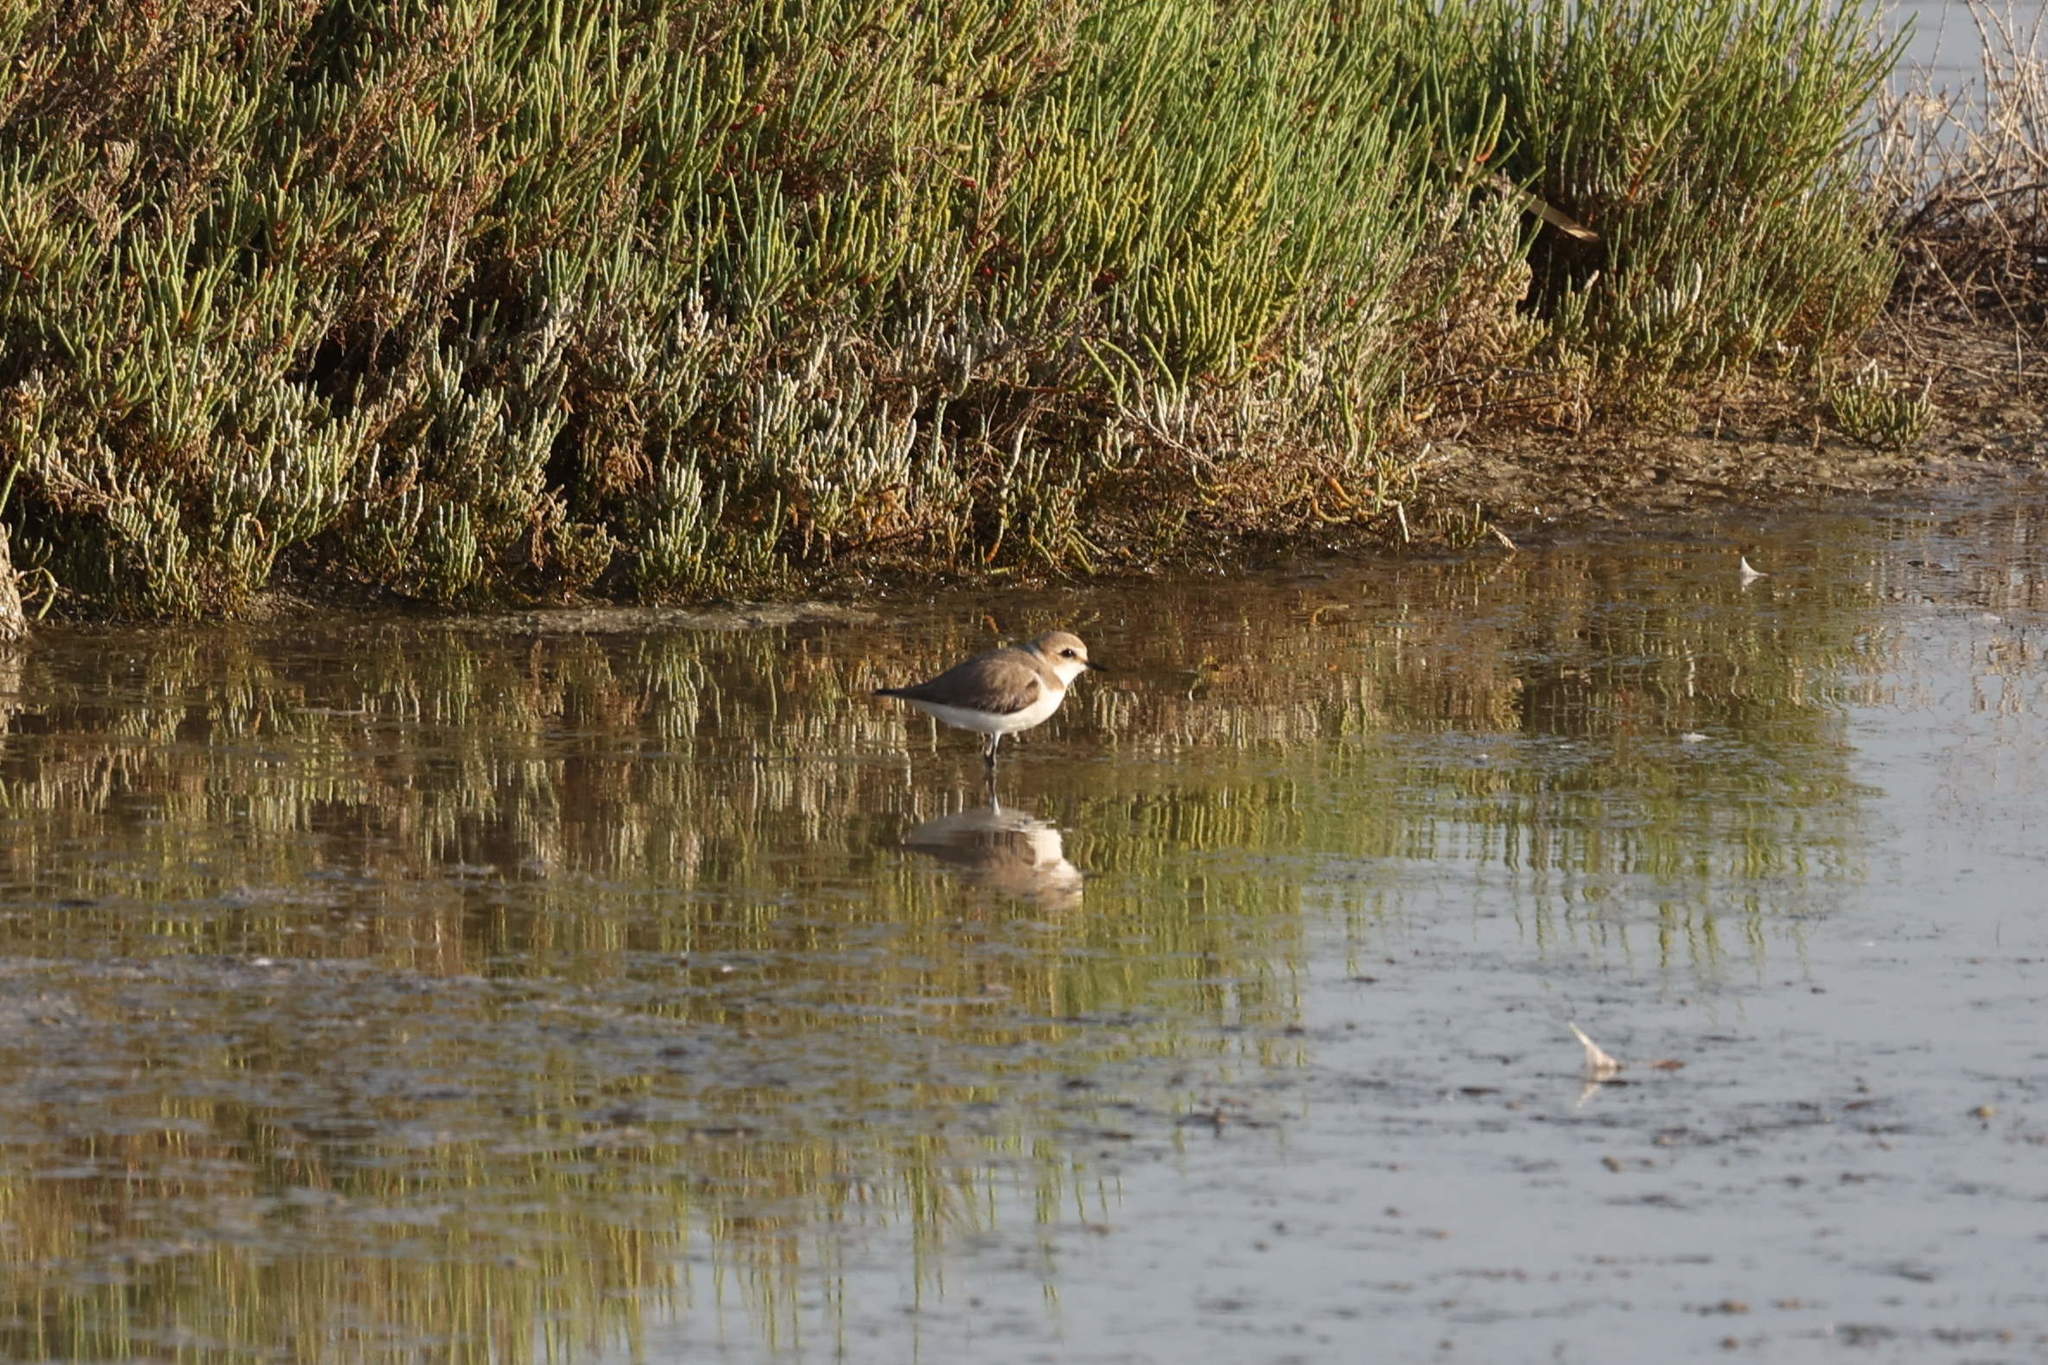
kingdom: Animalia
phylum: Chordata
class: Aves
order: Charadriiformes
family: Charadriidae
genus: Charadrius
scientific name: Charadrius alexandrinus
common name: Kentish plover
